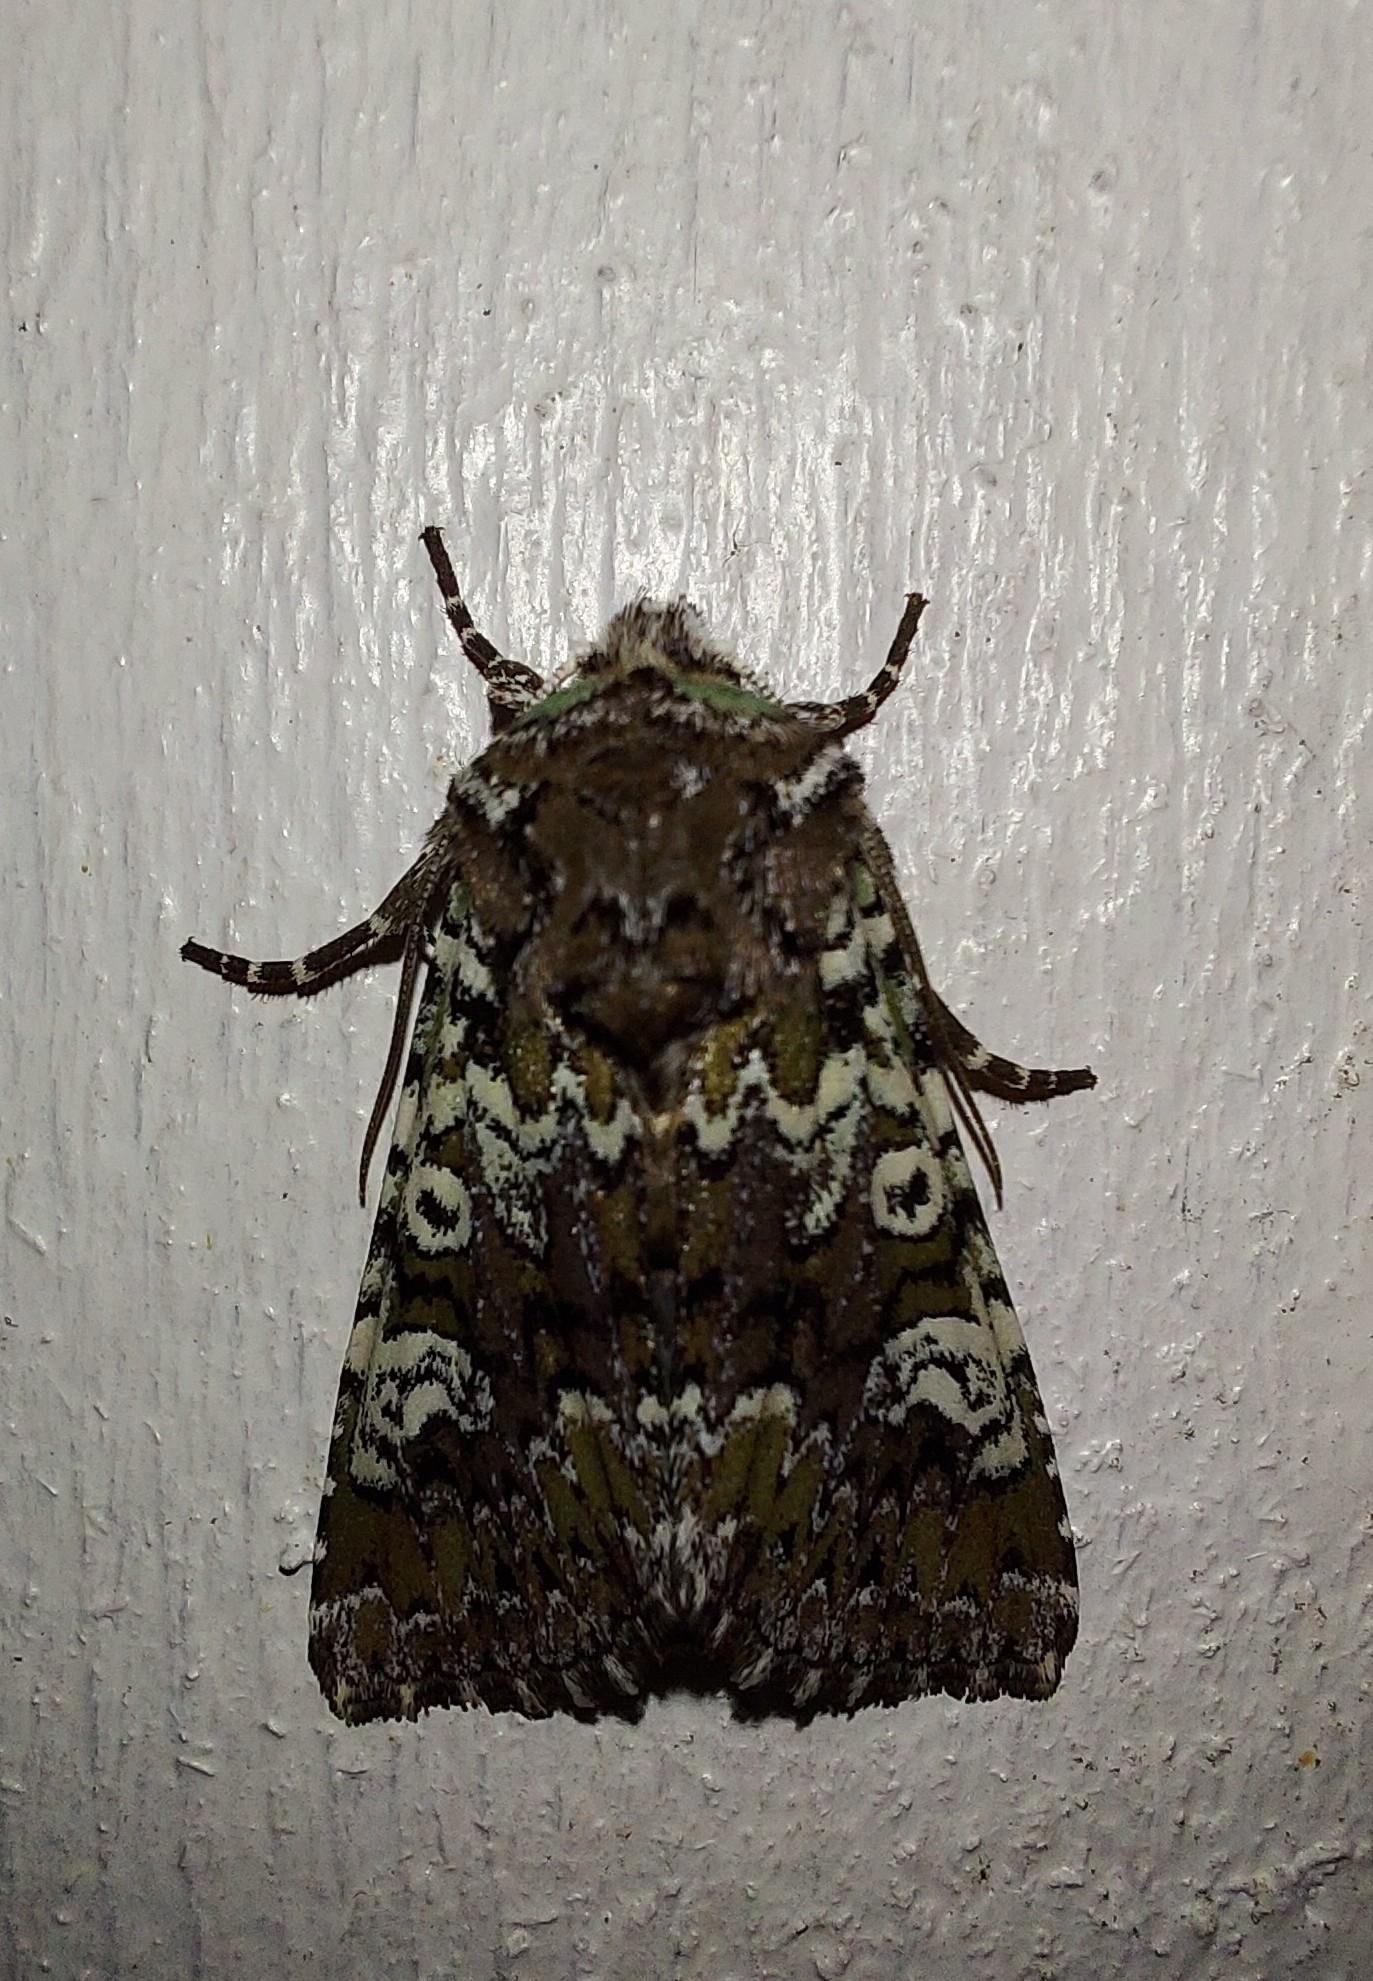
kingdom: Animalia
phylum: Arthropoda
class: Insecta
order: Lepidoptera
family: Noctuidae
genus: Crypsedra
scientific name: Crypsedra gemmea
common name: Cameo
